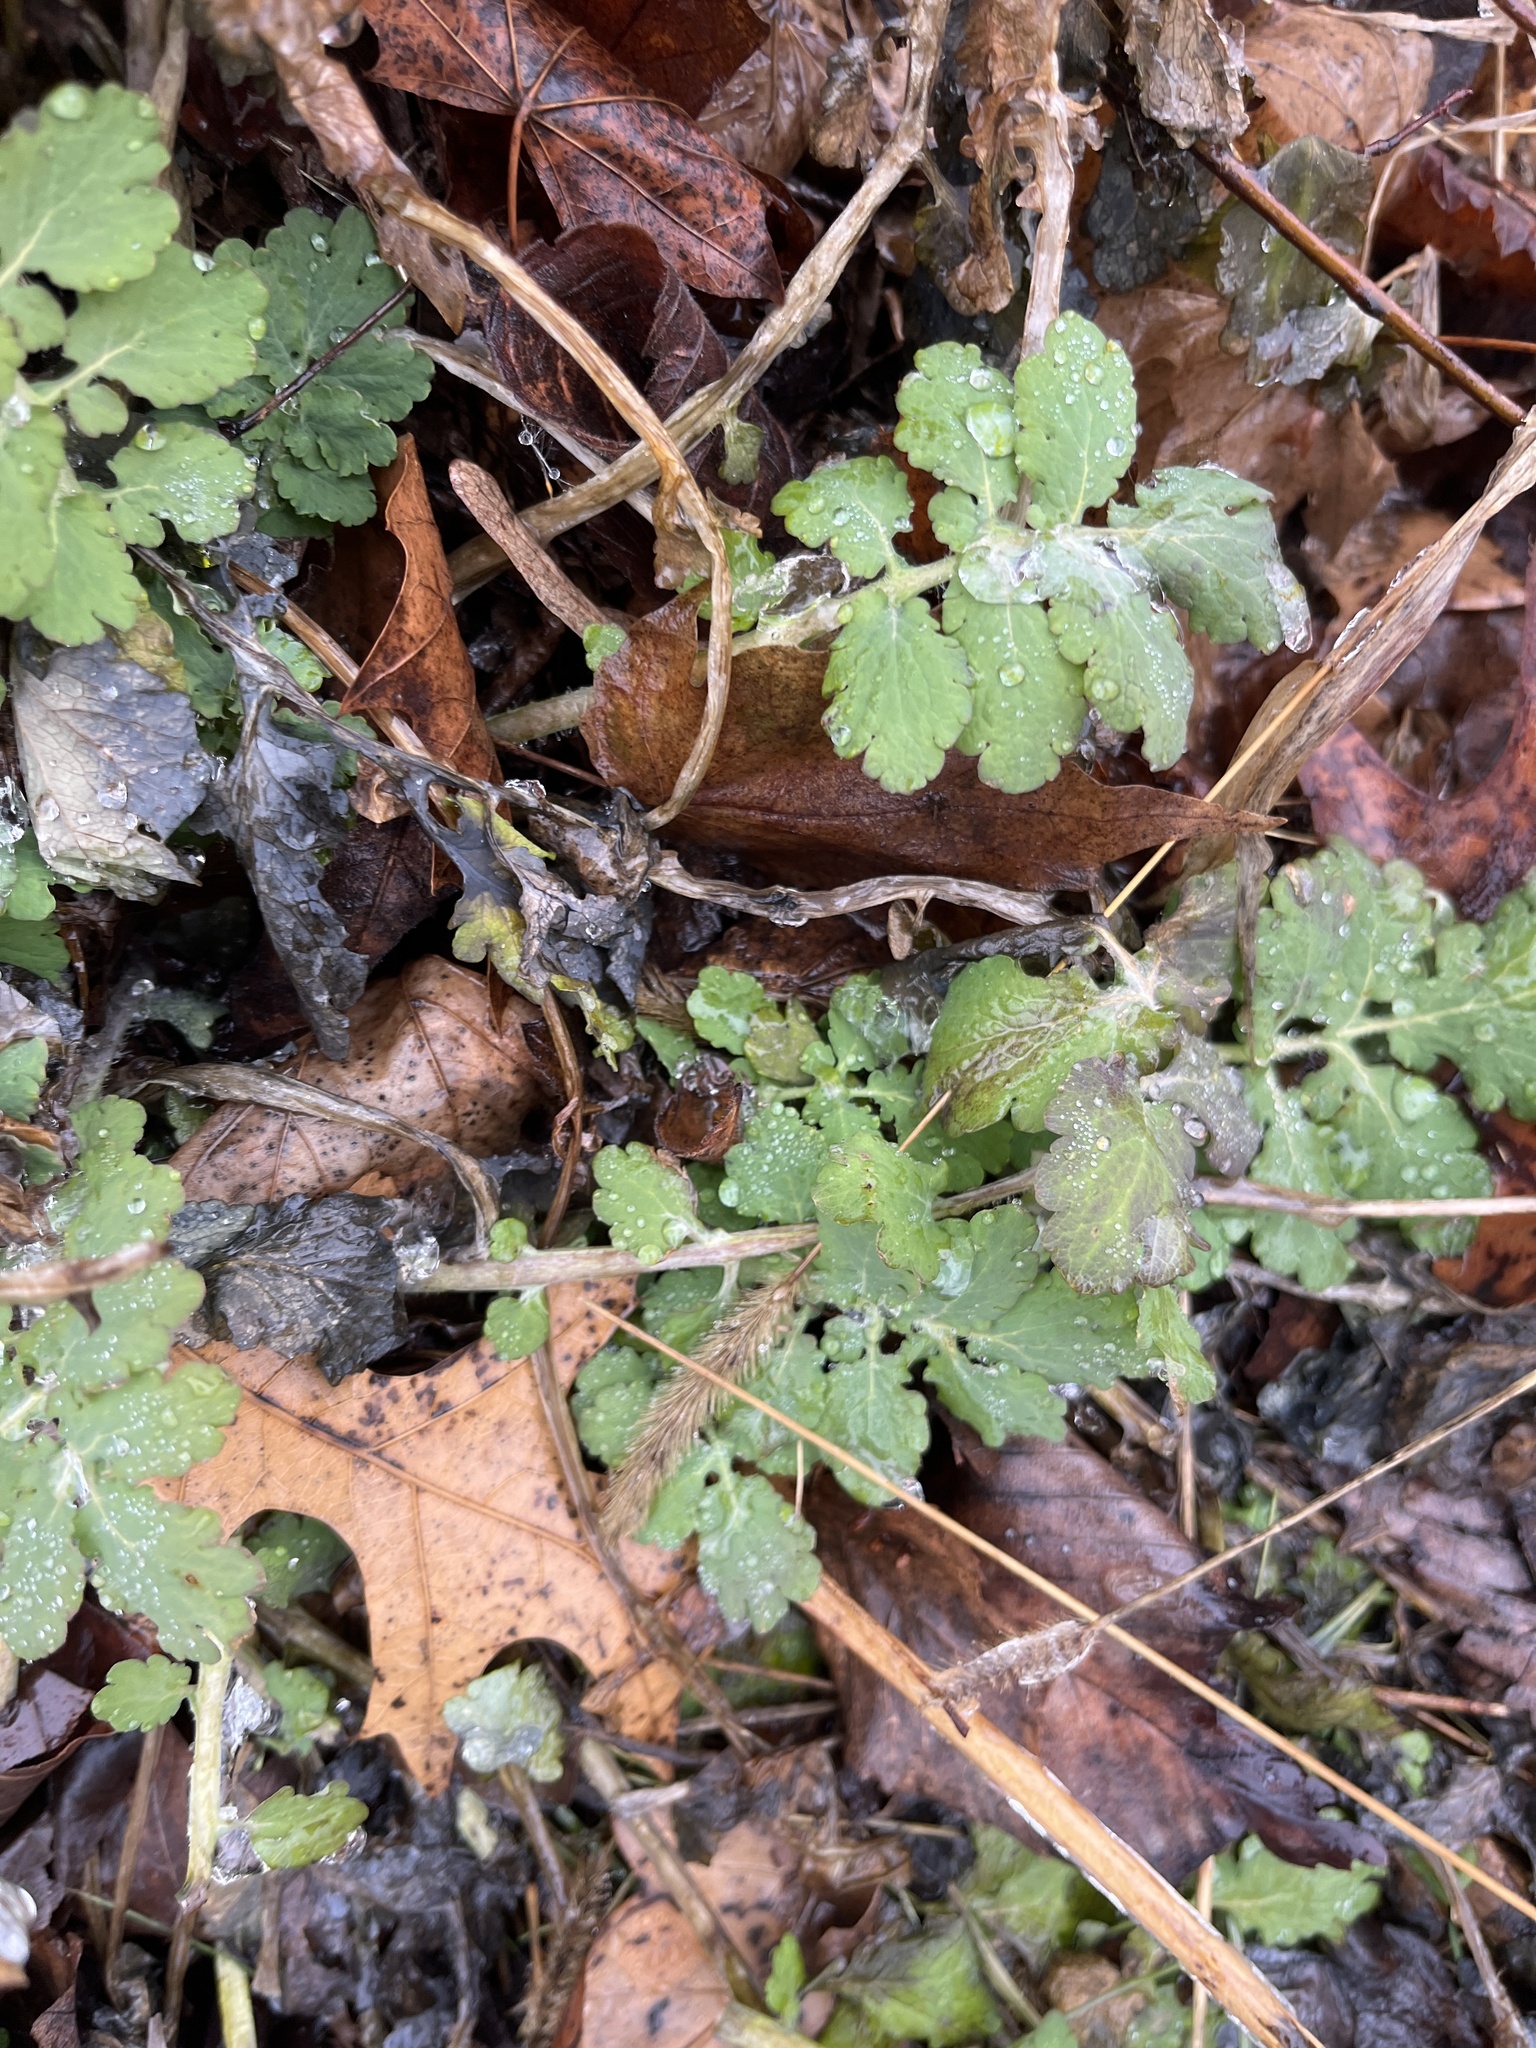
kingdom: Plantae
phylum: Tracheophyta
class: Magnoliopsida
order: Ranunculales
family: Papaveraceae
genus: Chelidonium
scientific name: Chelidonium majus
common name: Greater celandine
